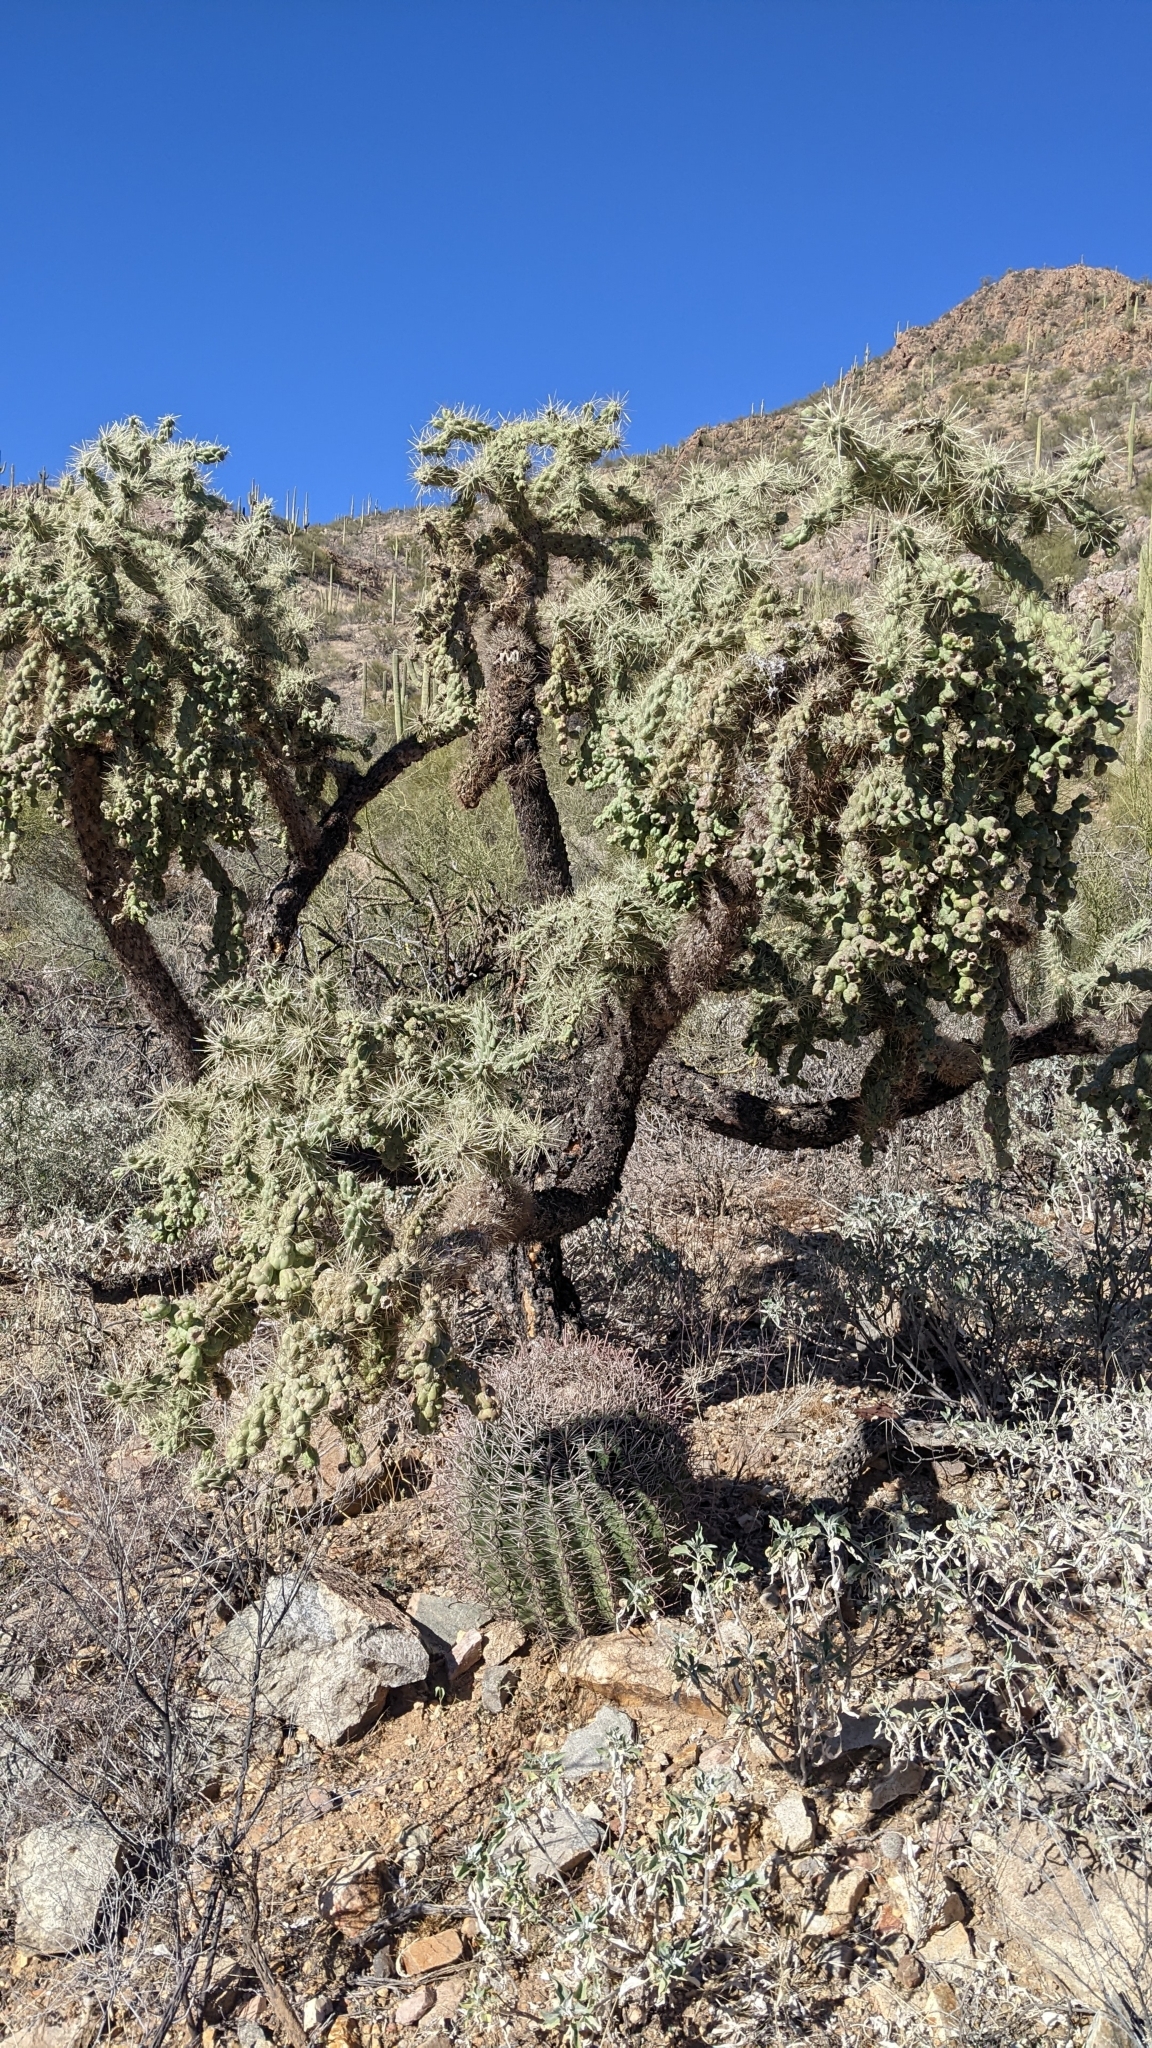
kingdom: Plantae
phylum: Tracheophyta
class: Magnoliopsida
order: Caryophyllales
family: Cactaceae
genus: Cylindropuntia
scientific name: Cylindropuntia fulgida
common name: Jumping cholla
